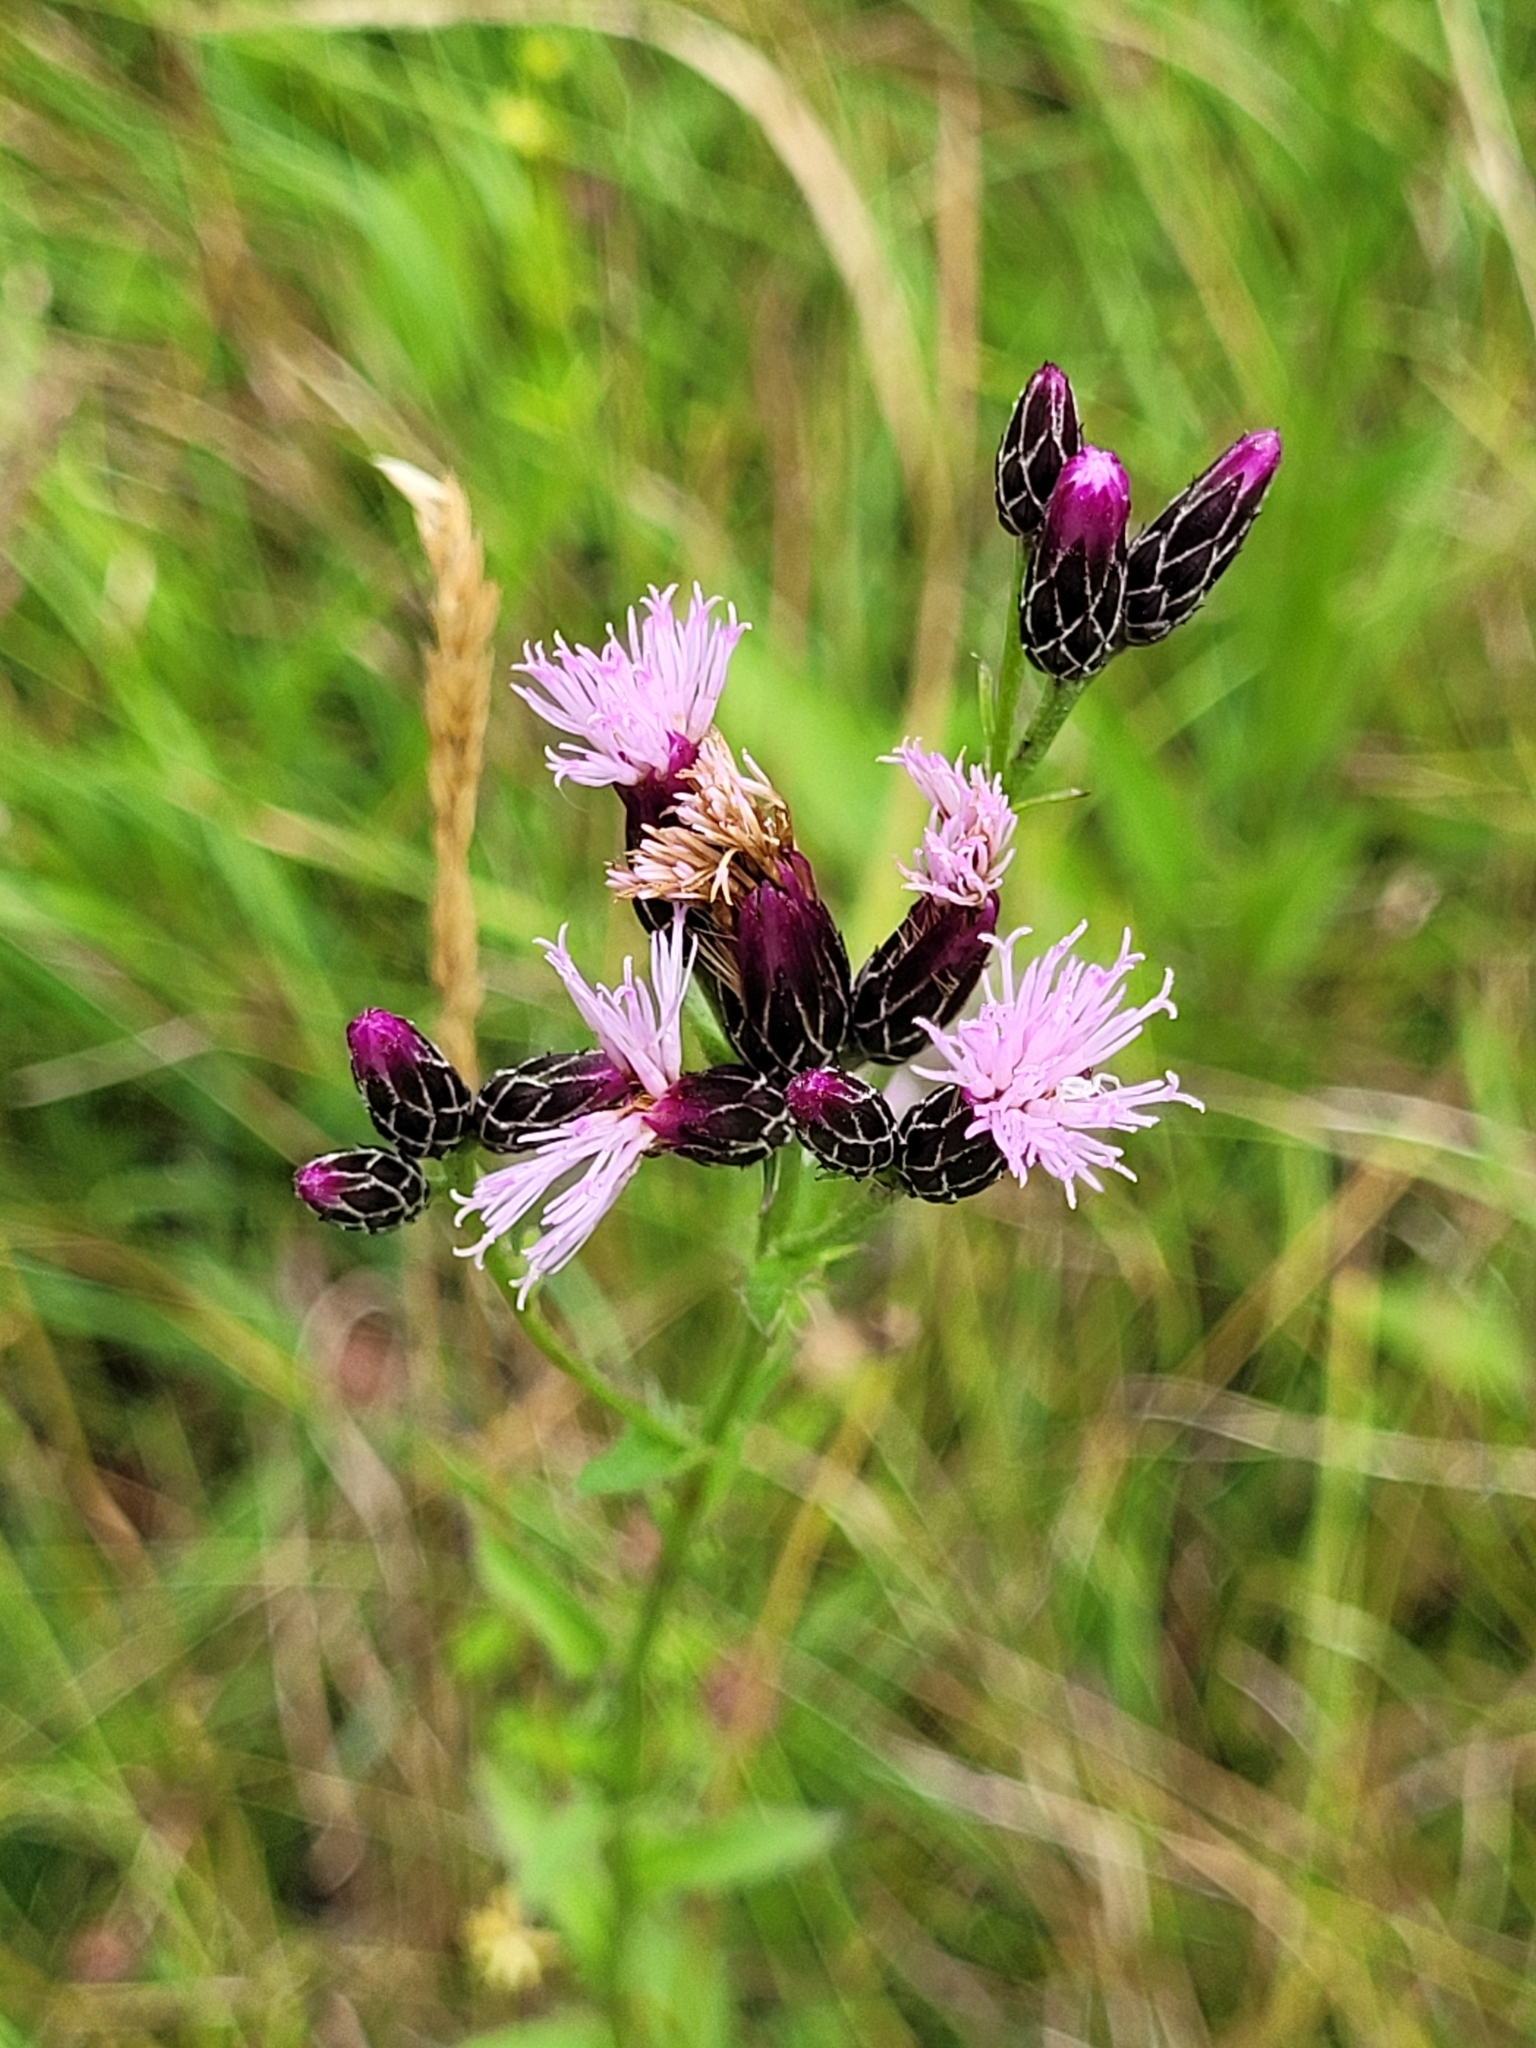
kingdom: Plantae
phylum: Tracheophyta
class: Magnoliopsida
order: Asterales
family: Asteraceae
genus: Serratula
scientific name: Serratula tinctoria
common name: Saw-wort
